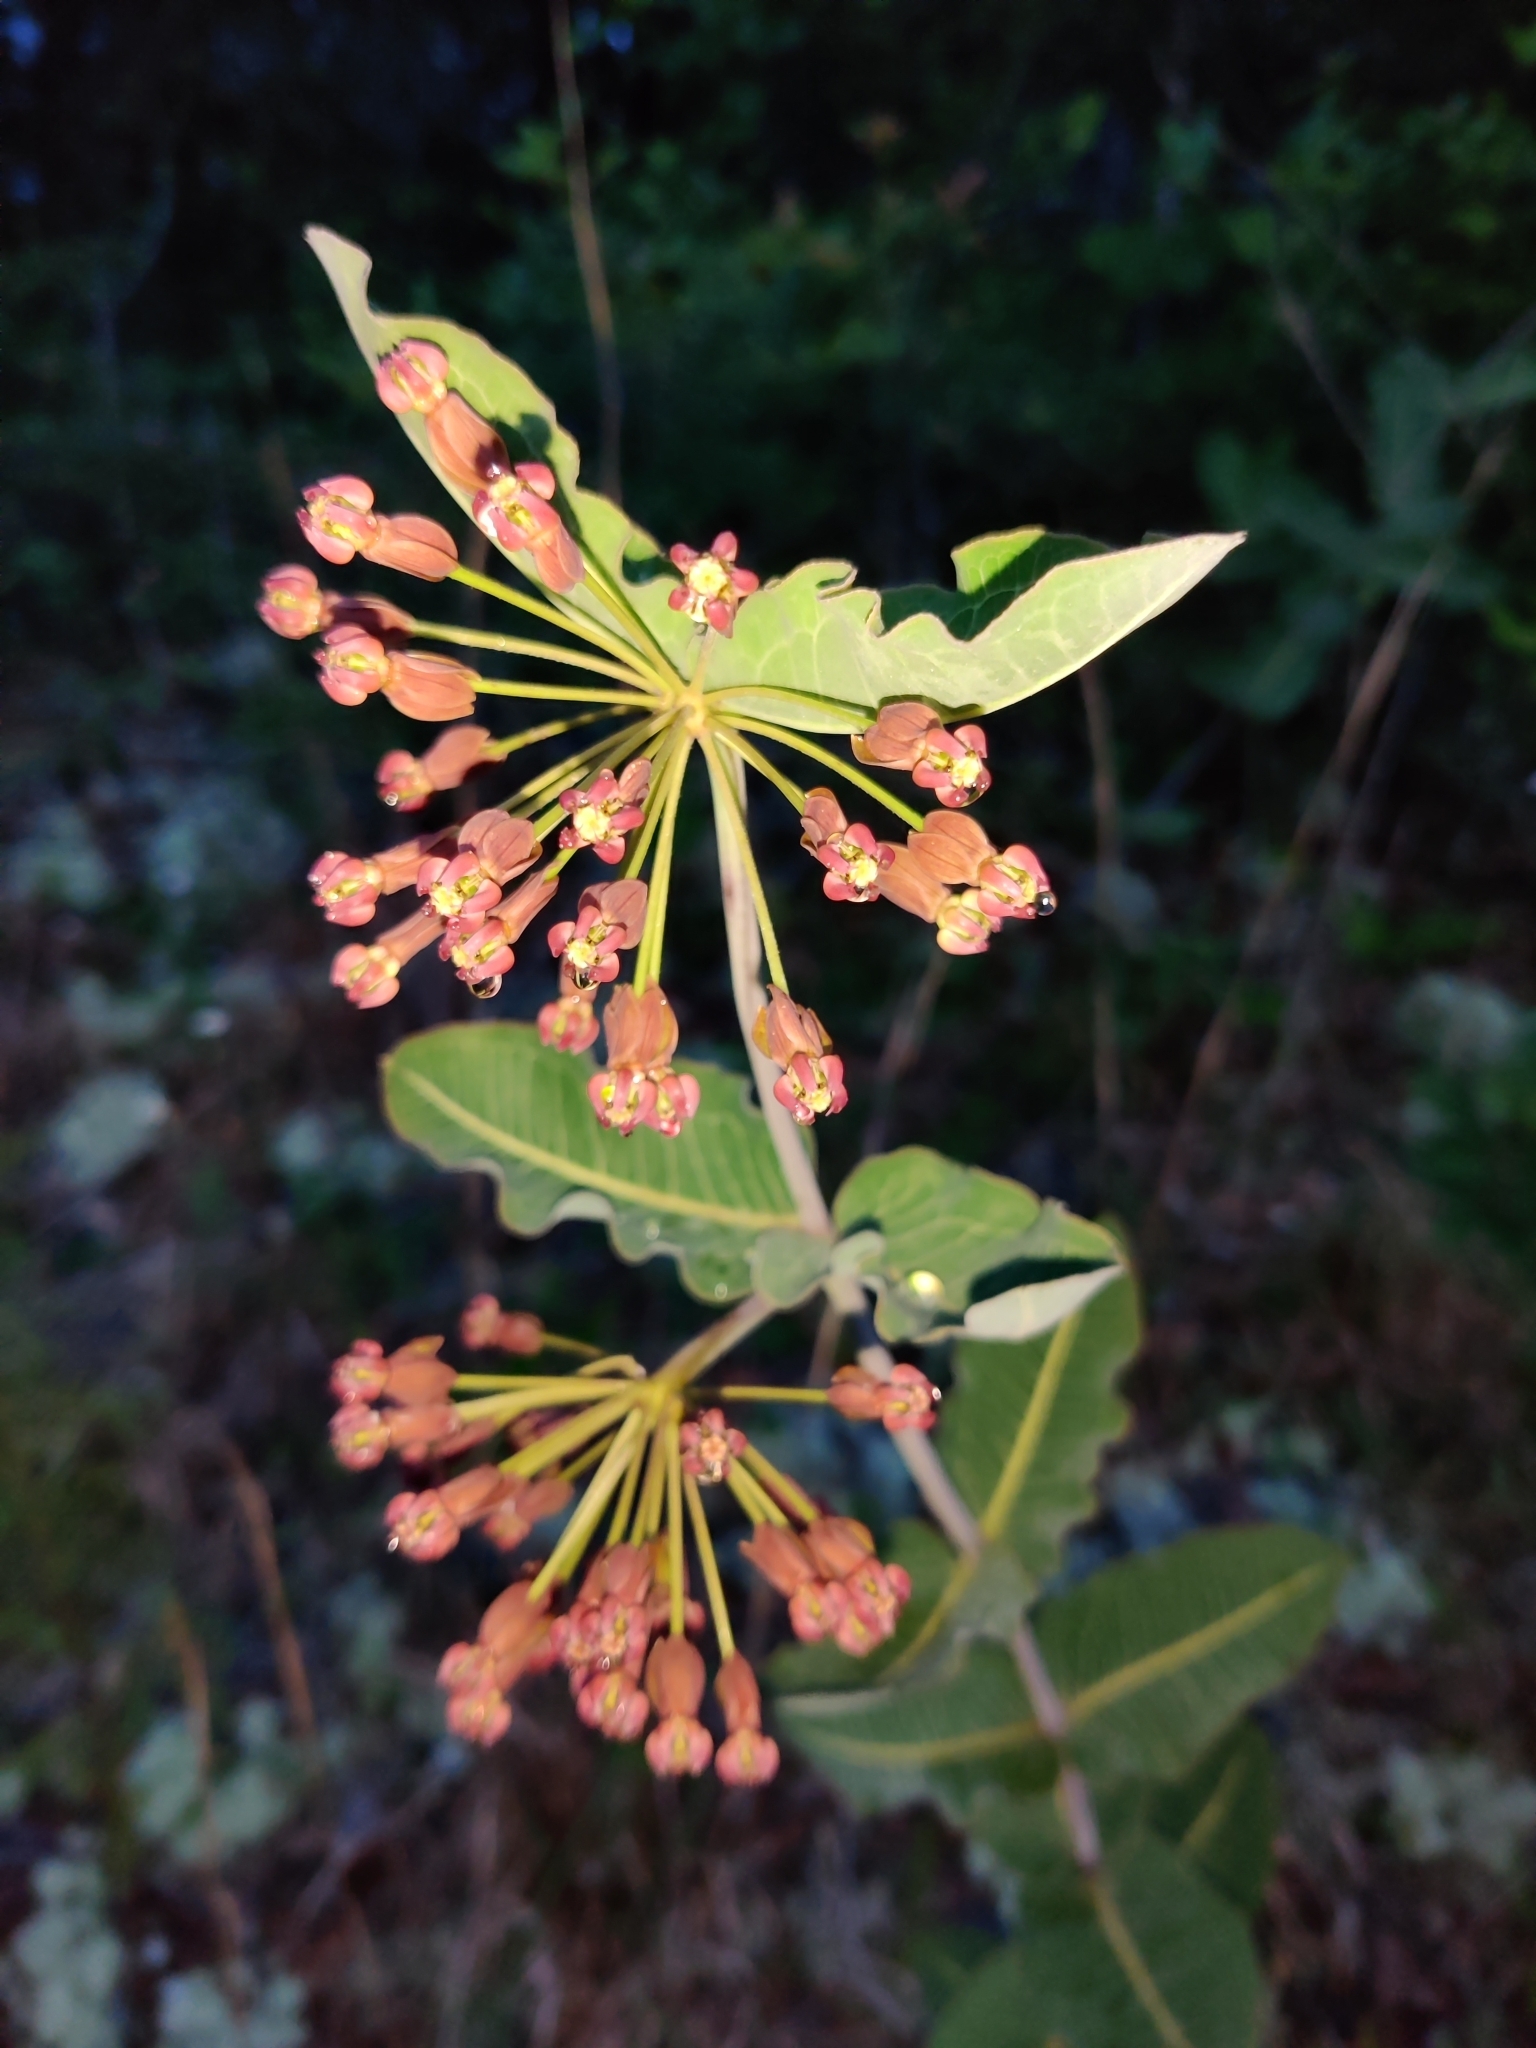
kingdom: Plantae
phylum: Tracheophyta
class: Magnoliopsida
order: Gentianales
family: Apocynaceae
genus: Asclepias
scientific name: Asclepias amplexicaulis
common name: Blunt-leaf milkweed
